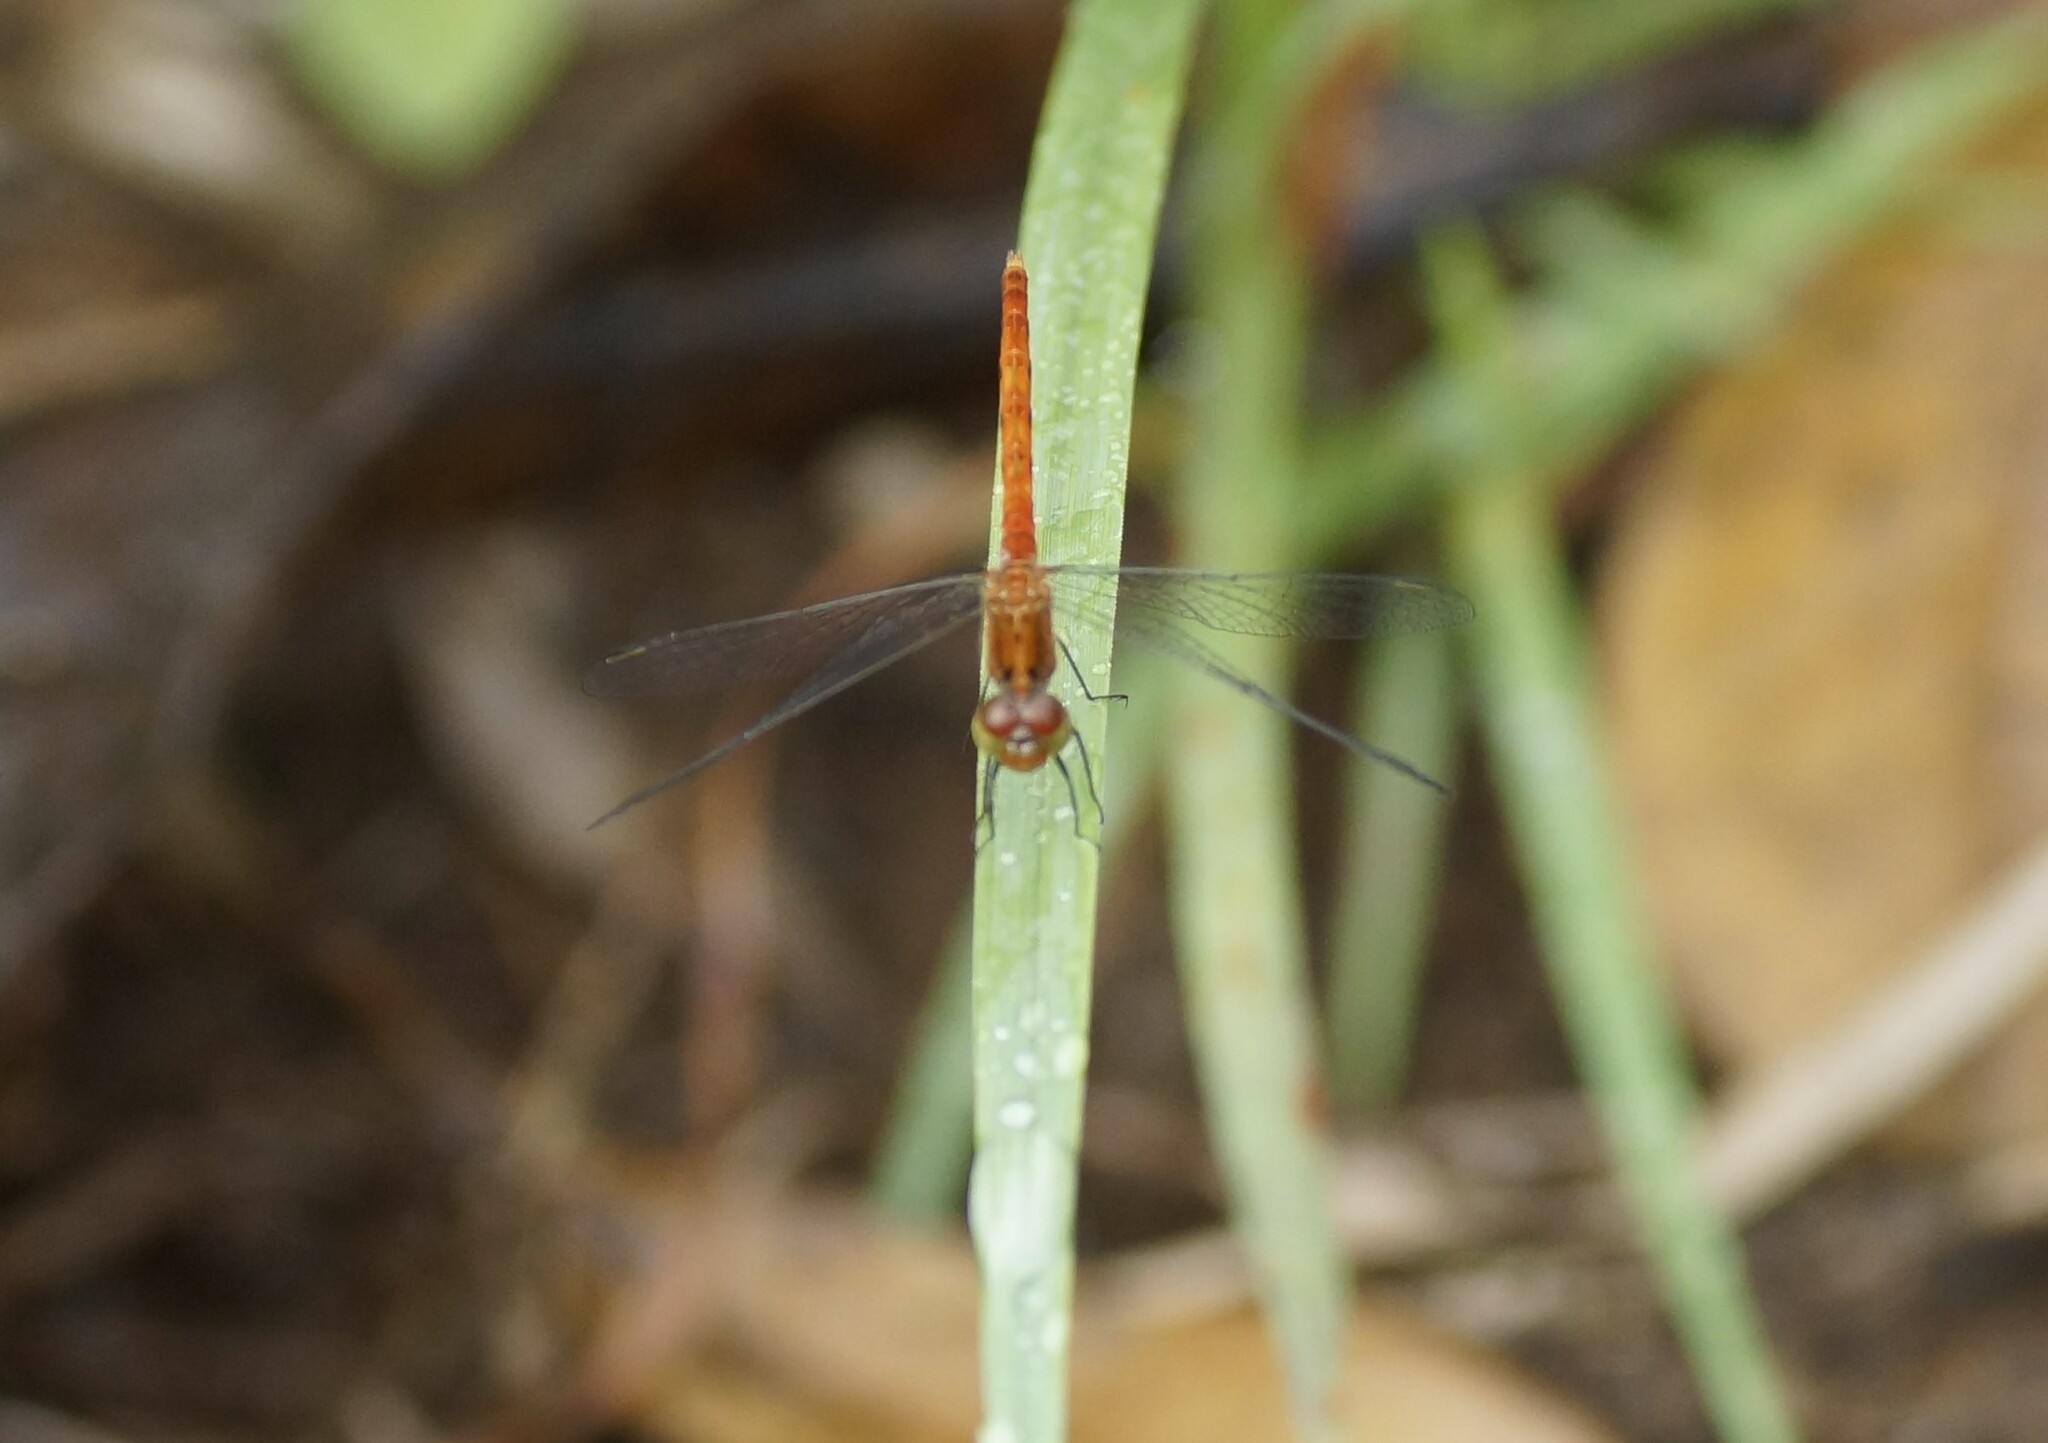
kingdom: Animalia
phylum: Arthropoda
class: Insecta
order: Odonata
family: Libellulidae
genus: Nannodiplax
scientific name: Nannodiplax rubra
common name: Pygmy percher
